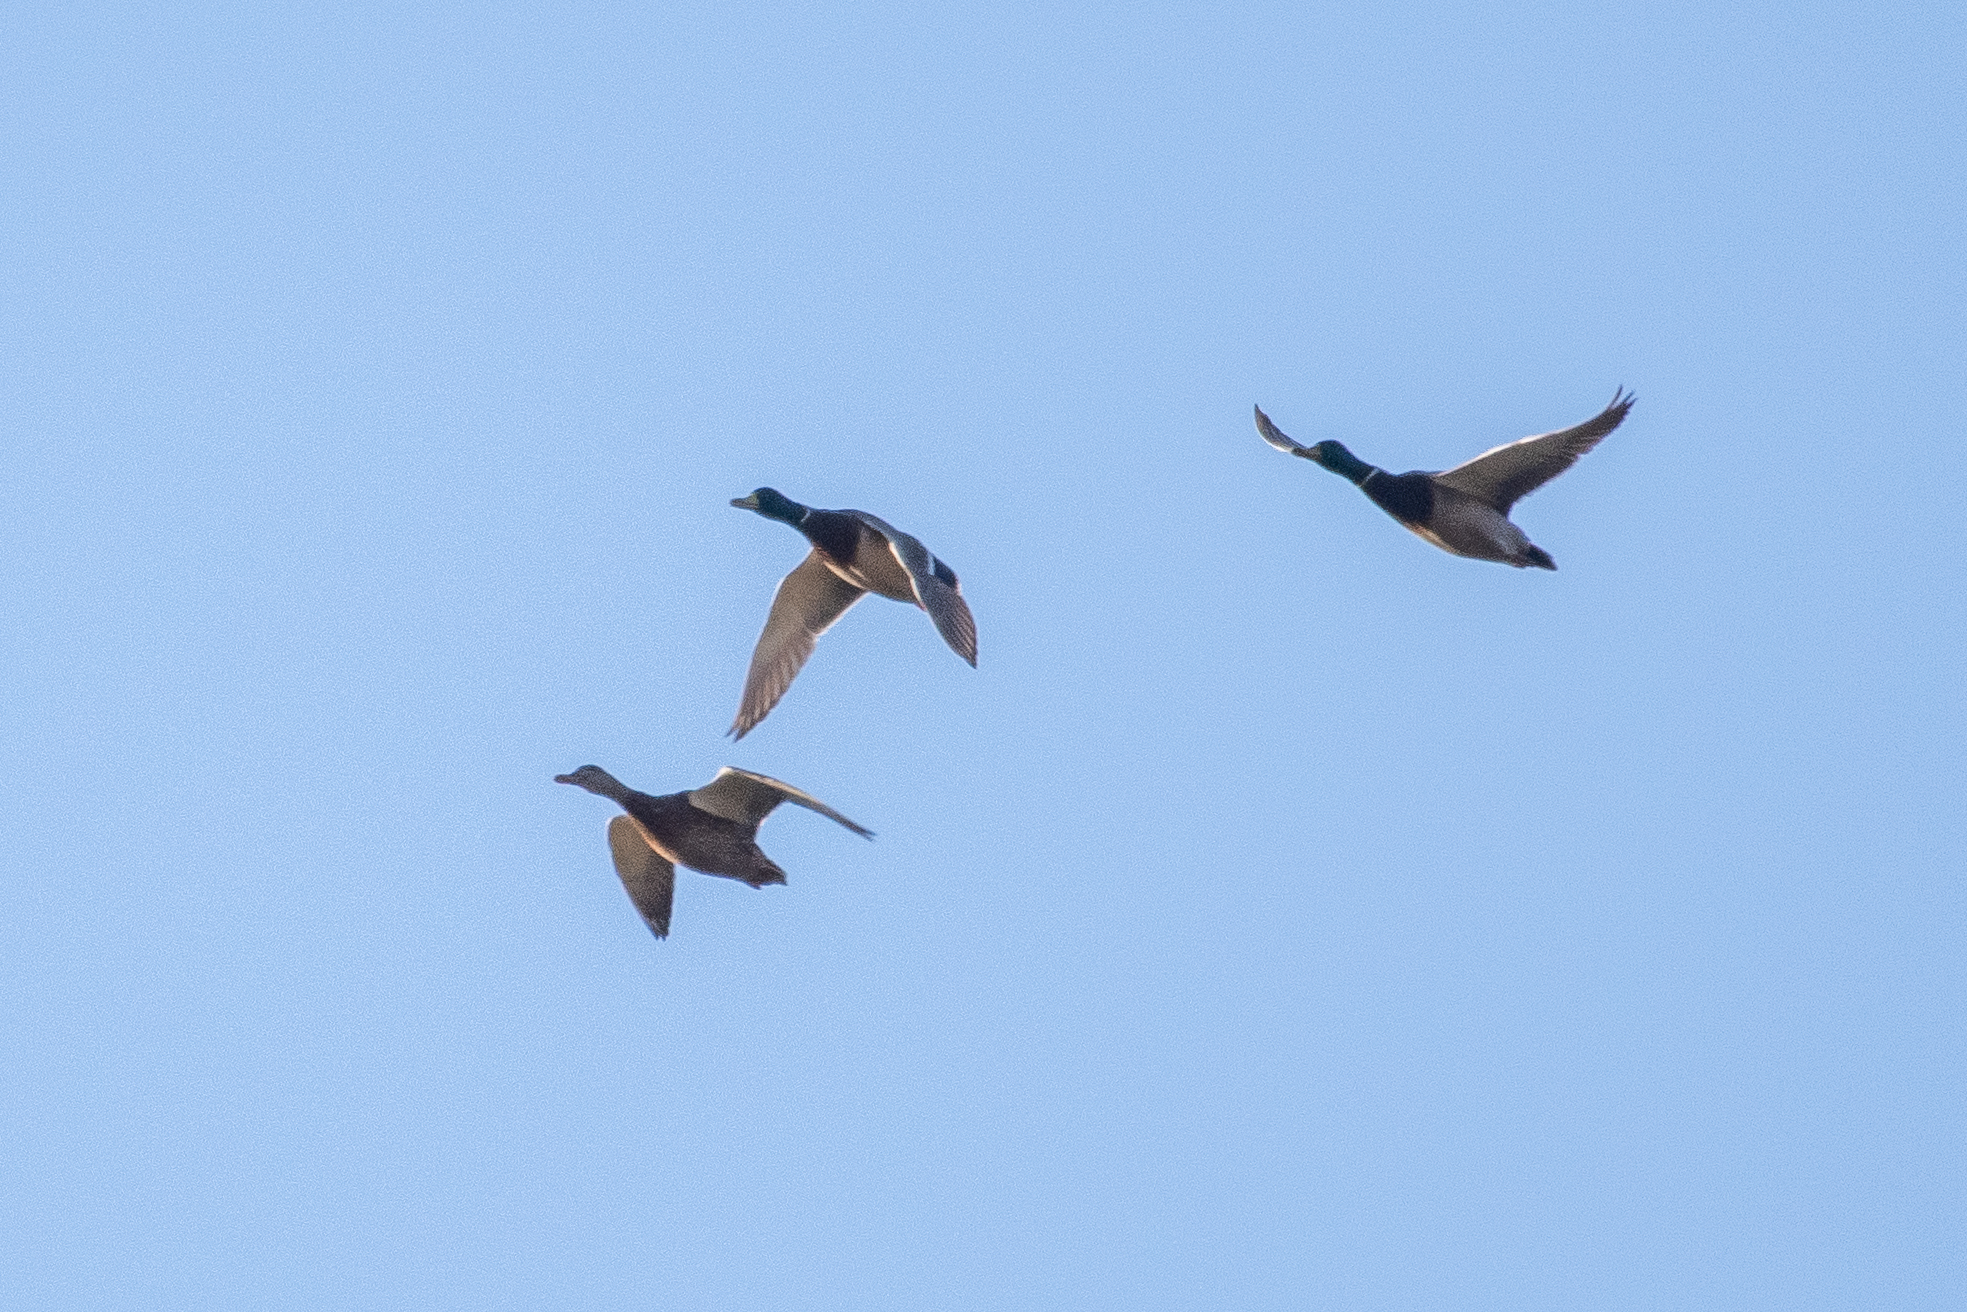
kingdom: Animalia
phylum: Chordata
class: Aves
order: Anseriformes
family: Anatidae
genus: Anas
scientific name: Anas platyrhynchos
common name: Mallard
